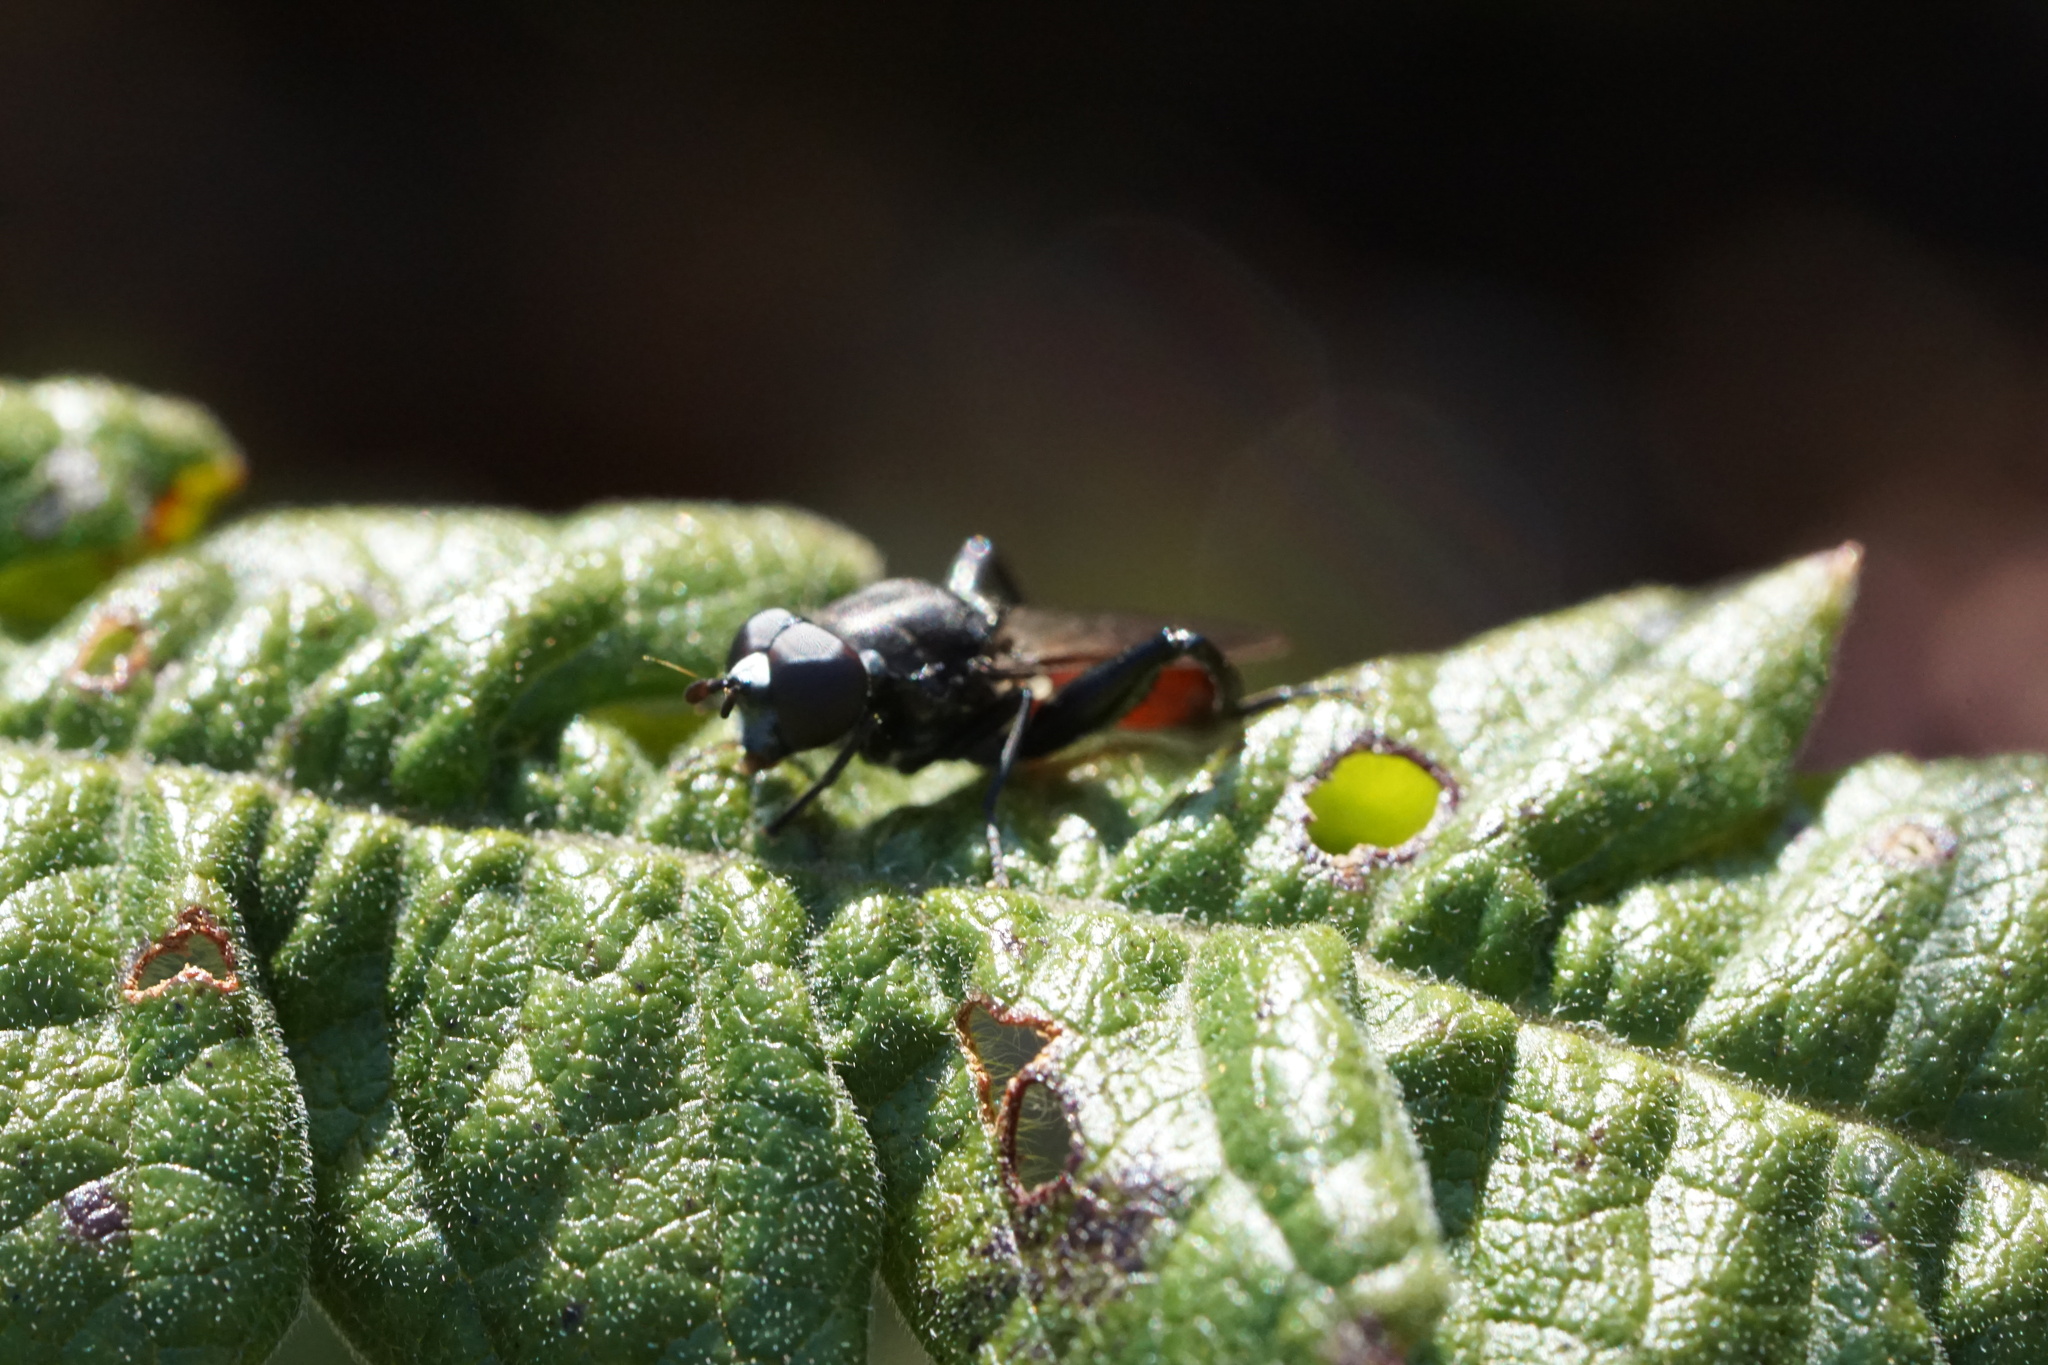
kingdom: Animalia
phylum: Arthropoda
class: Insecta
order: Diptera
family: Syrphidae
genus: Chalcosyrphus
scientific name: Chalcosyrphus piger
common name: Short-haired leafwalker
